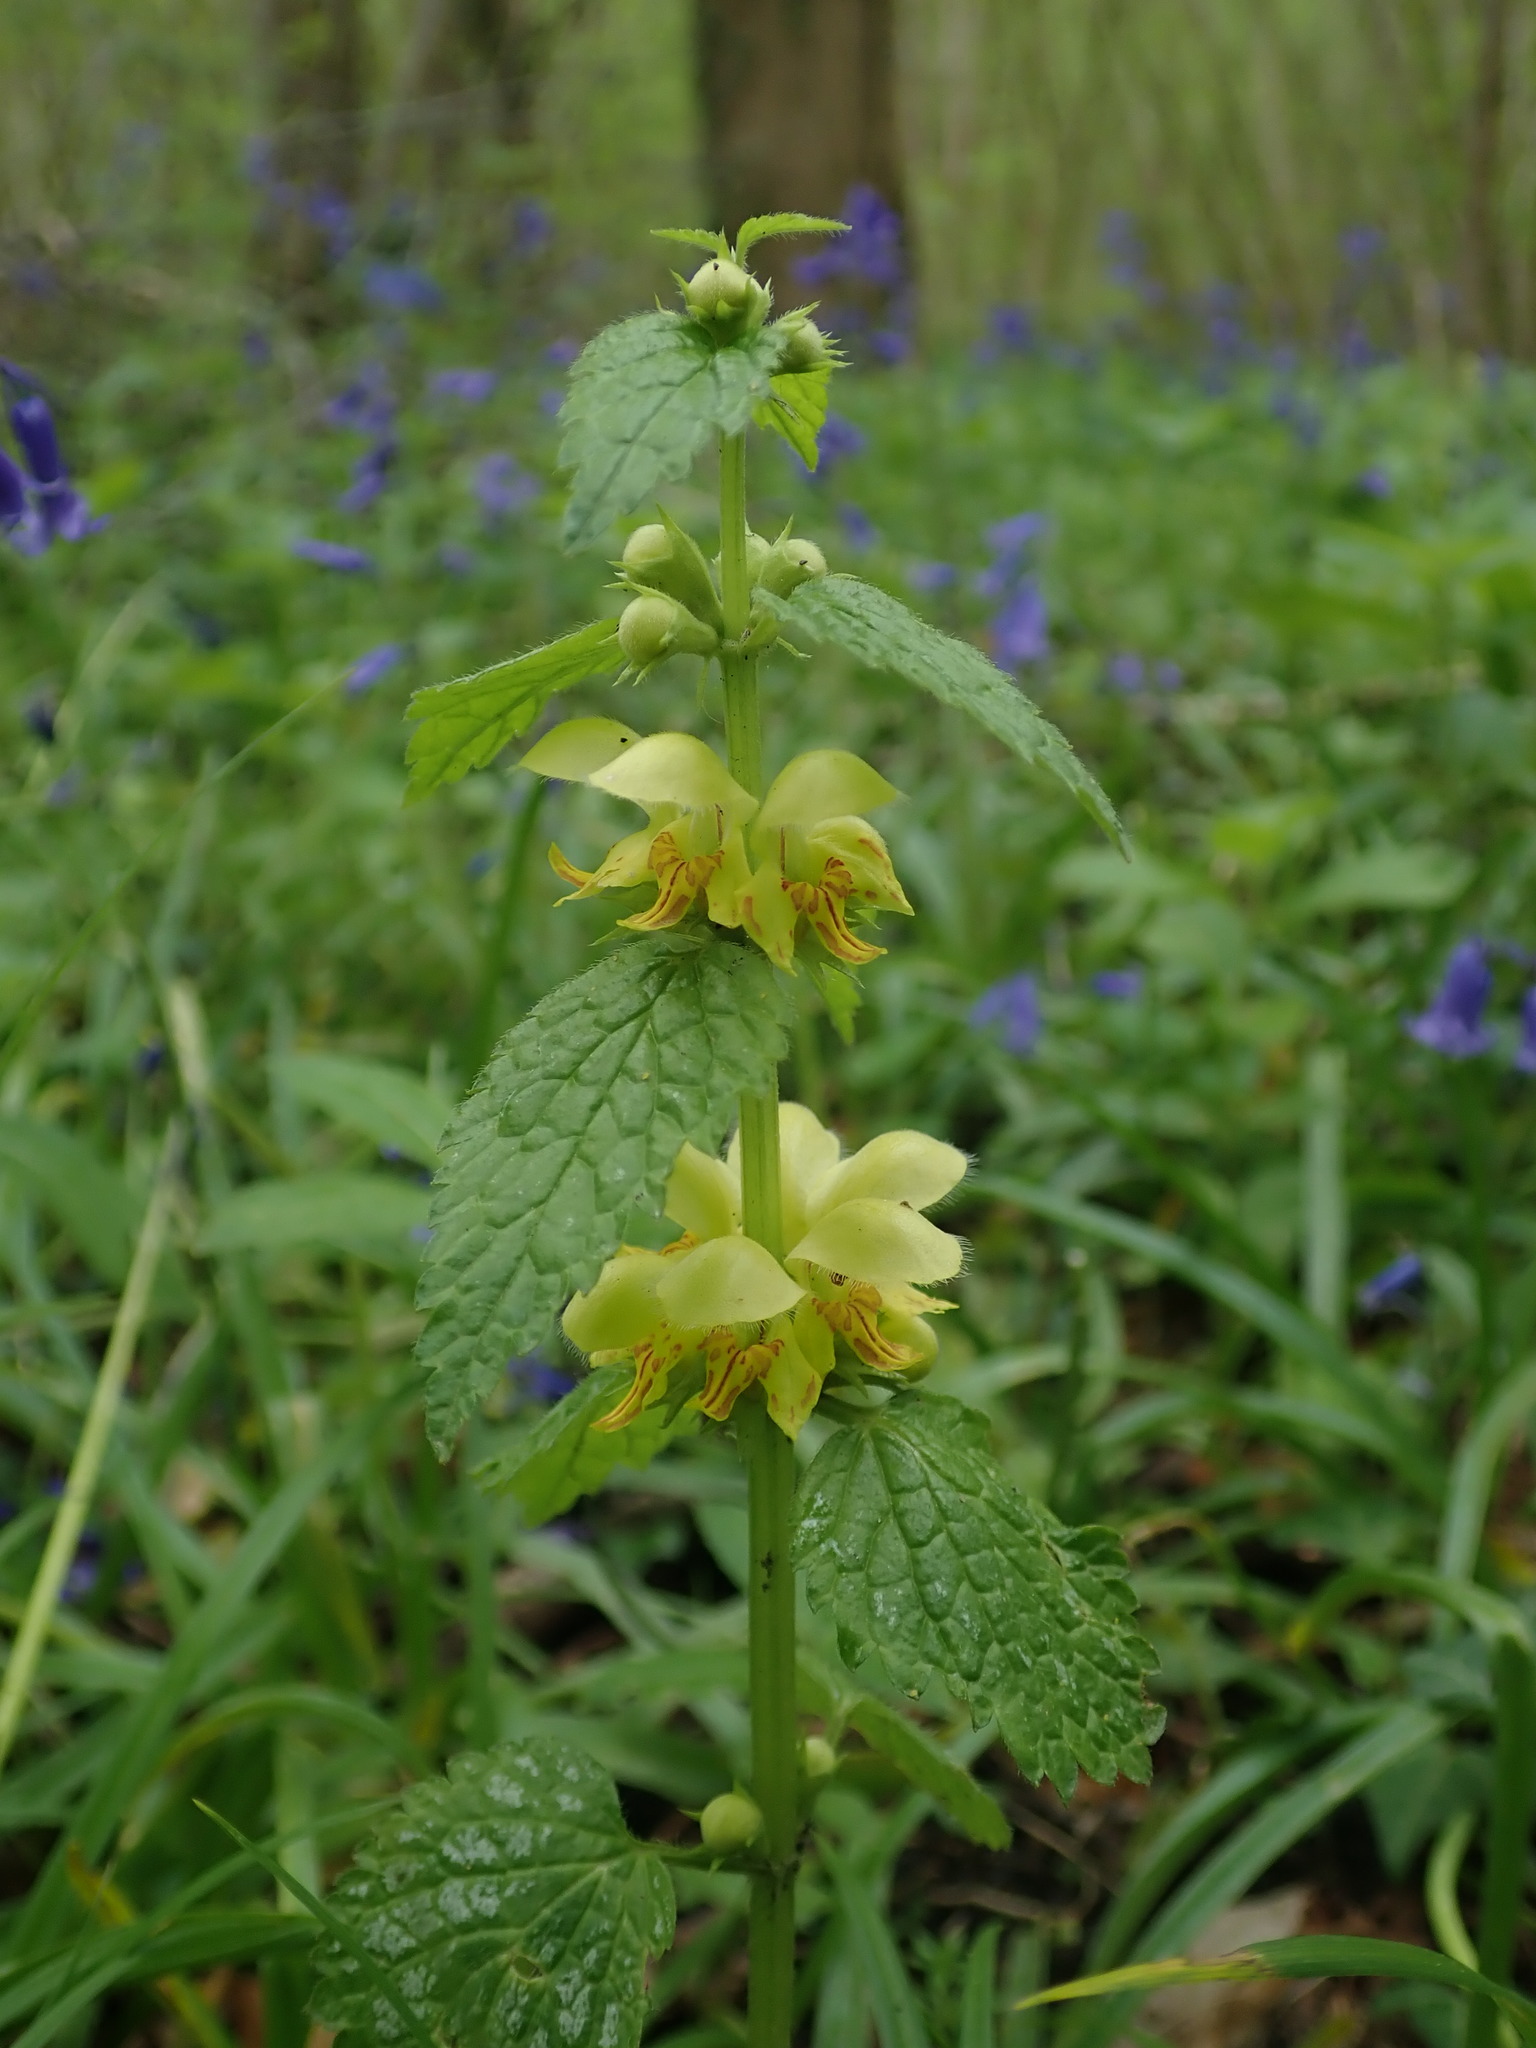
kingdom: Plantae
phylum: Tracheophyta
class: Magnoliopsida
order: Lamiales
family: Lamiaceae
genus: Lamium
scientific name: Lamium galeobdolon
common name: Yellow archangel
